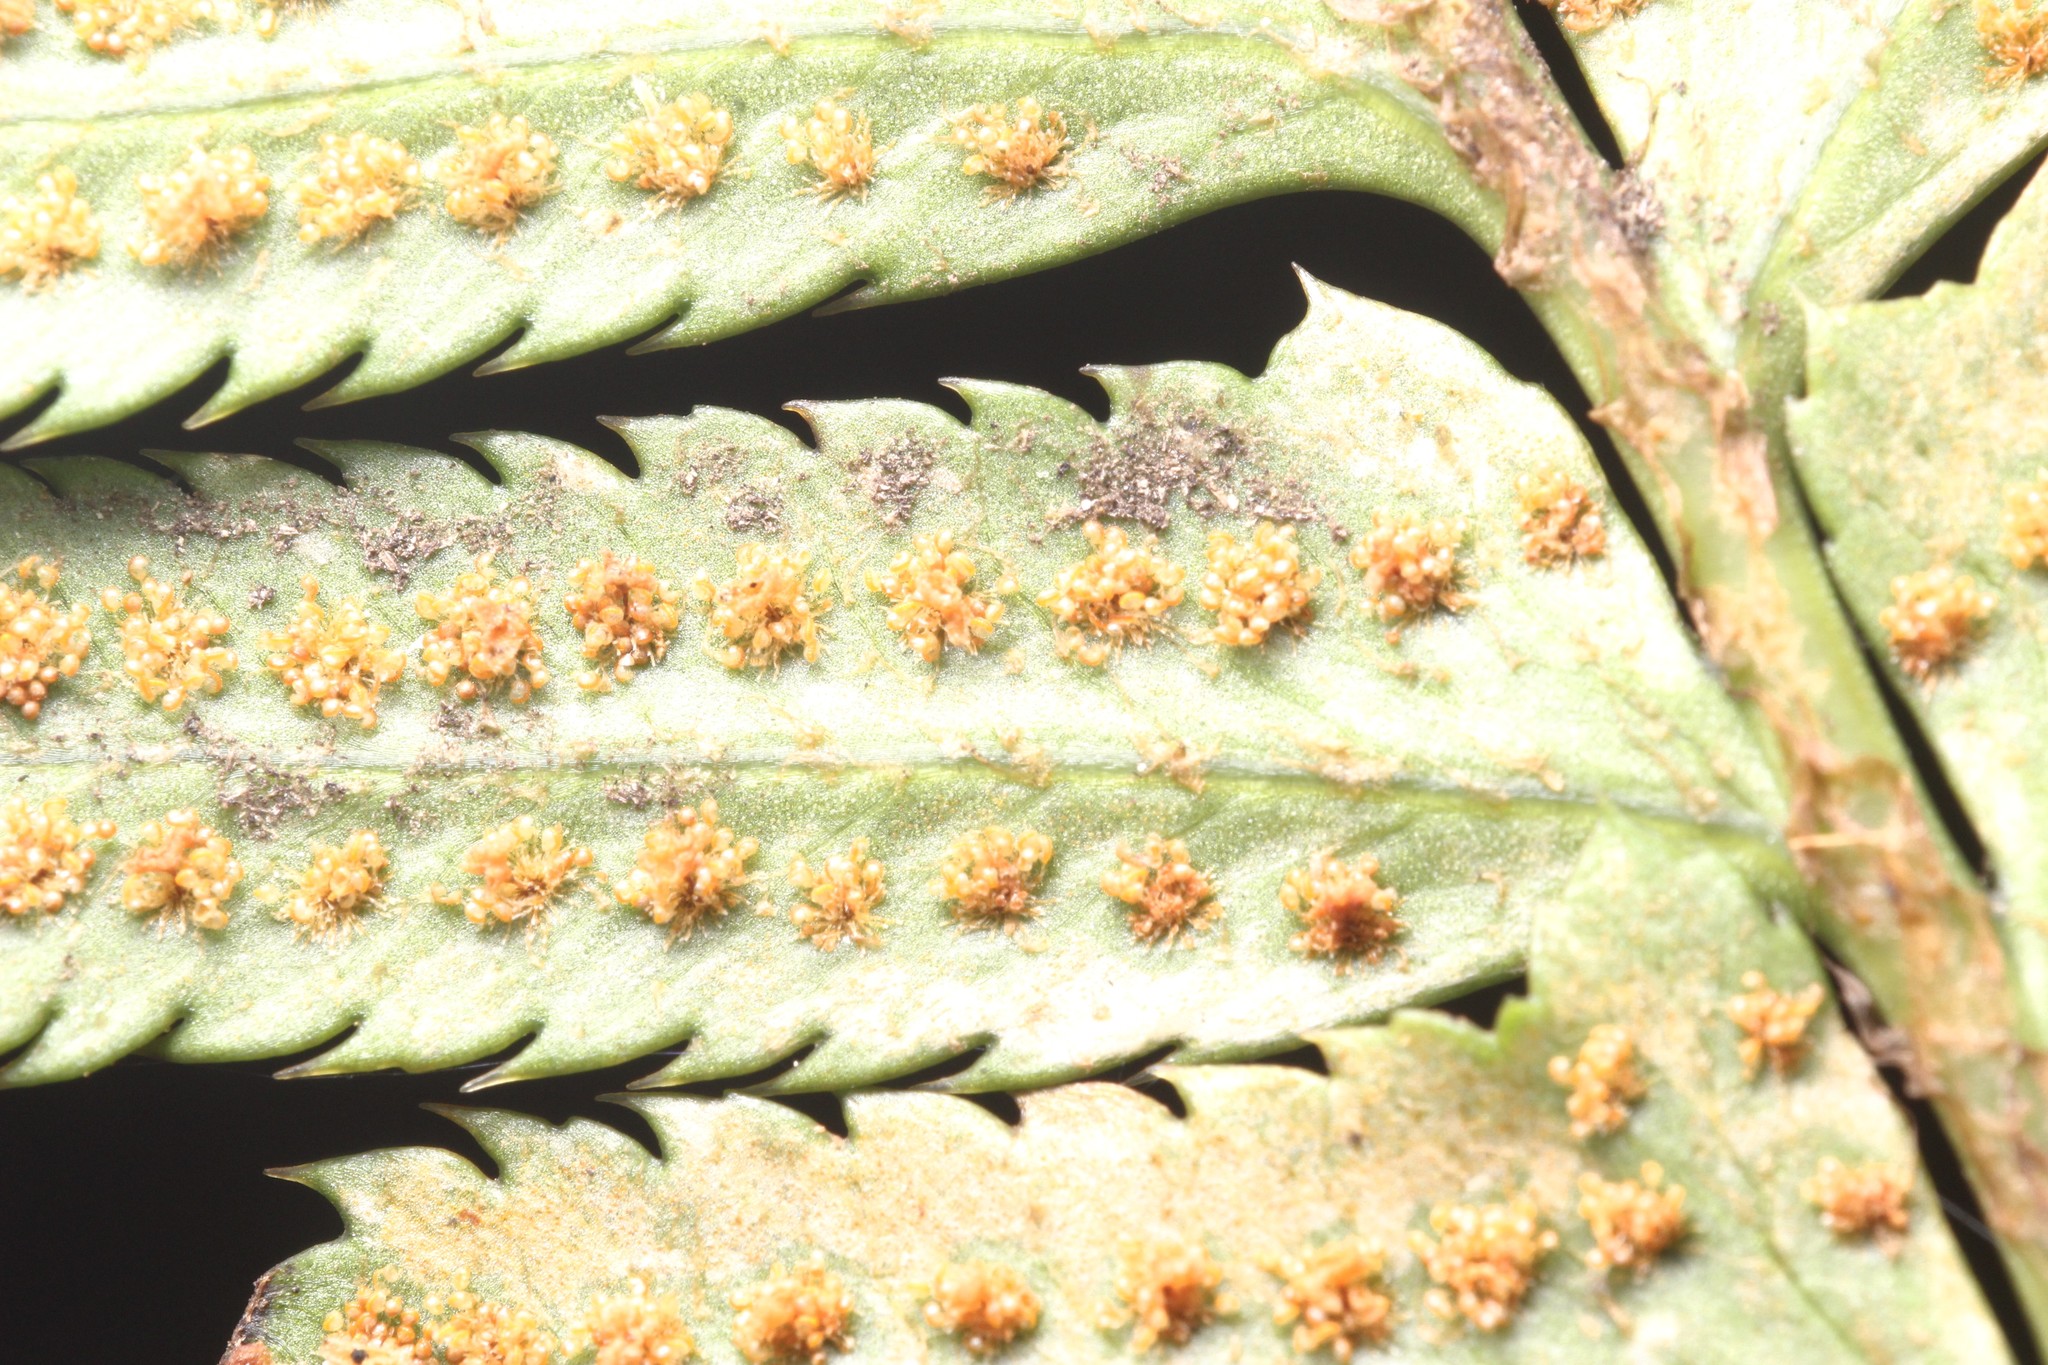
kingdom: Plantae
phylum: Tracheophyta
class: Polypodiopsida
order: Polypodiales
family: Dryopteridaceae
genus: Polystichum
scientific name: Polystichum munitum
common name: Western sword-fern
